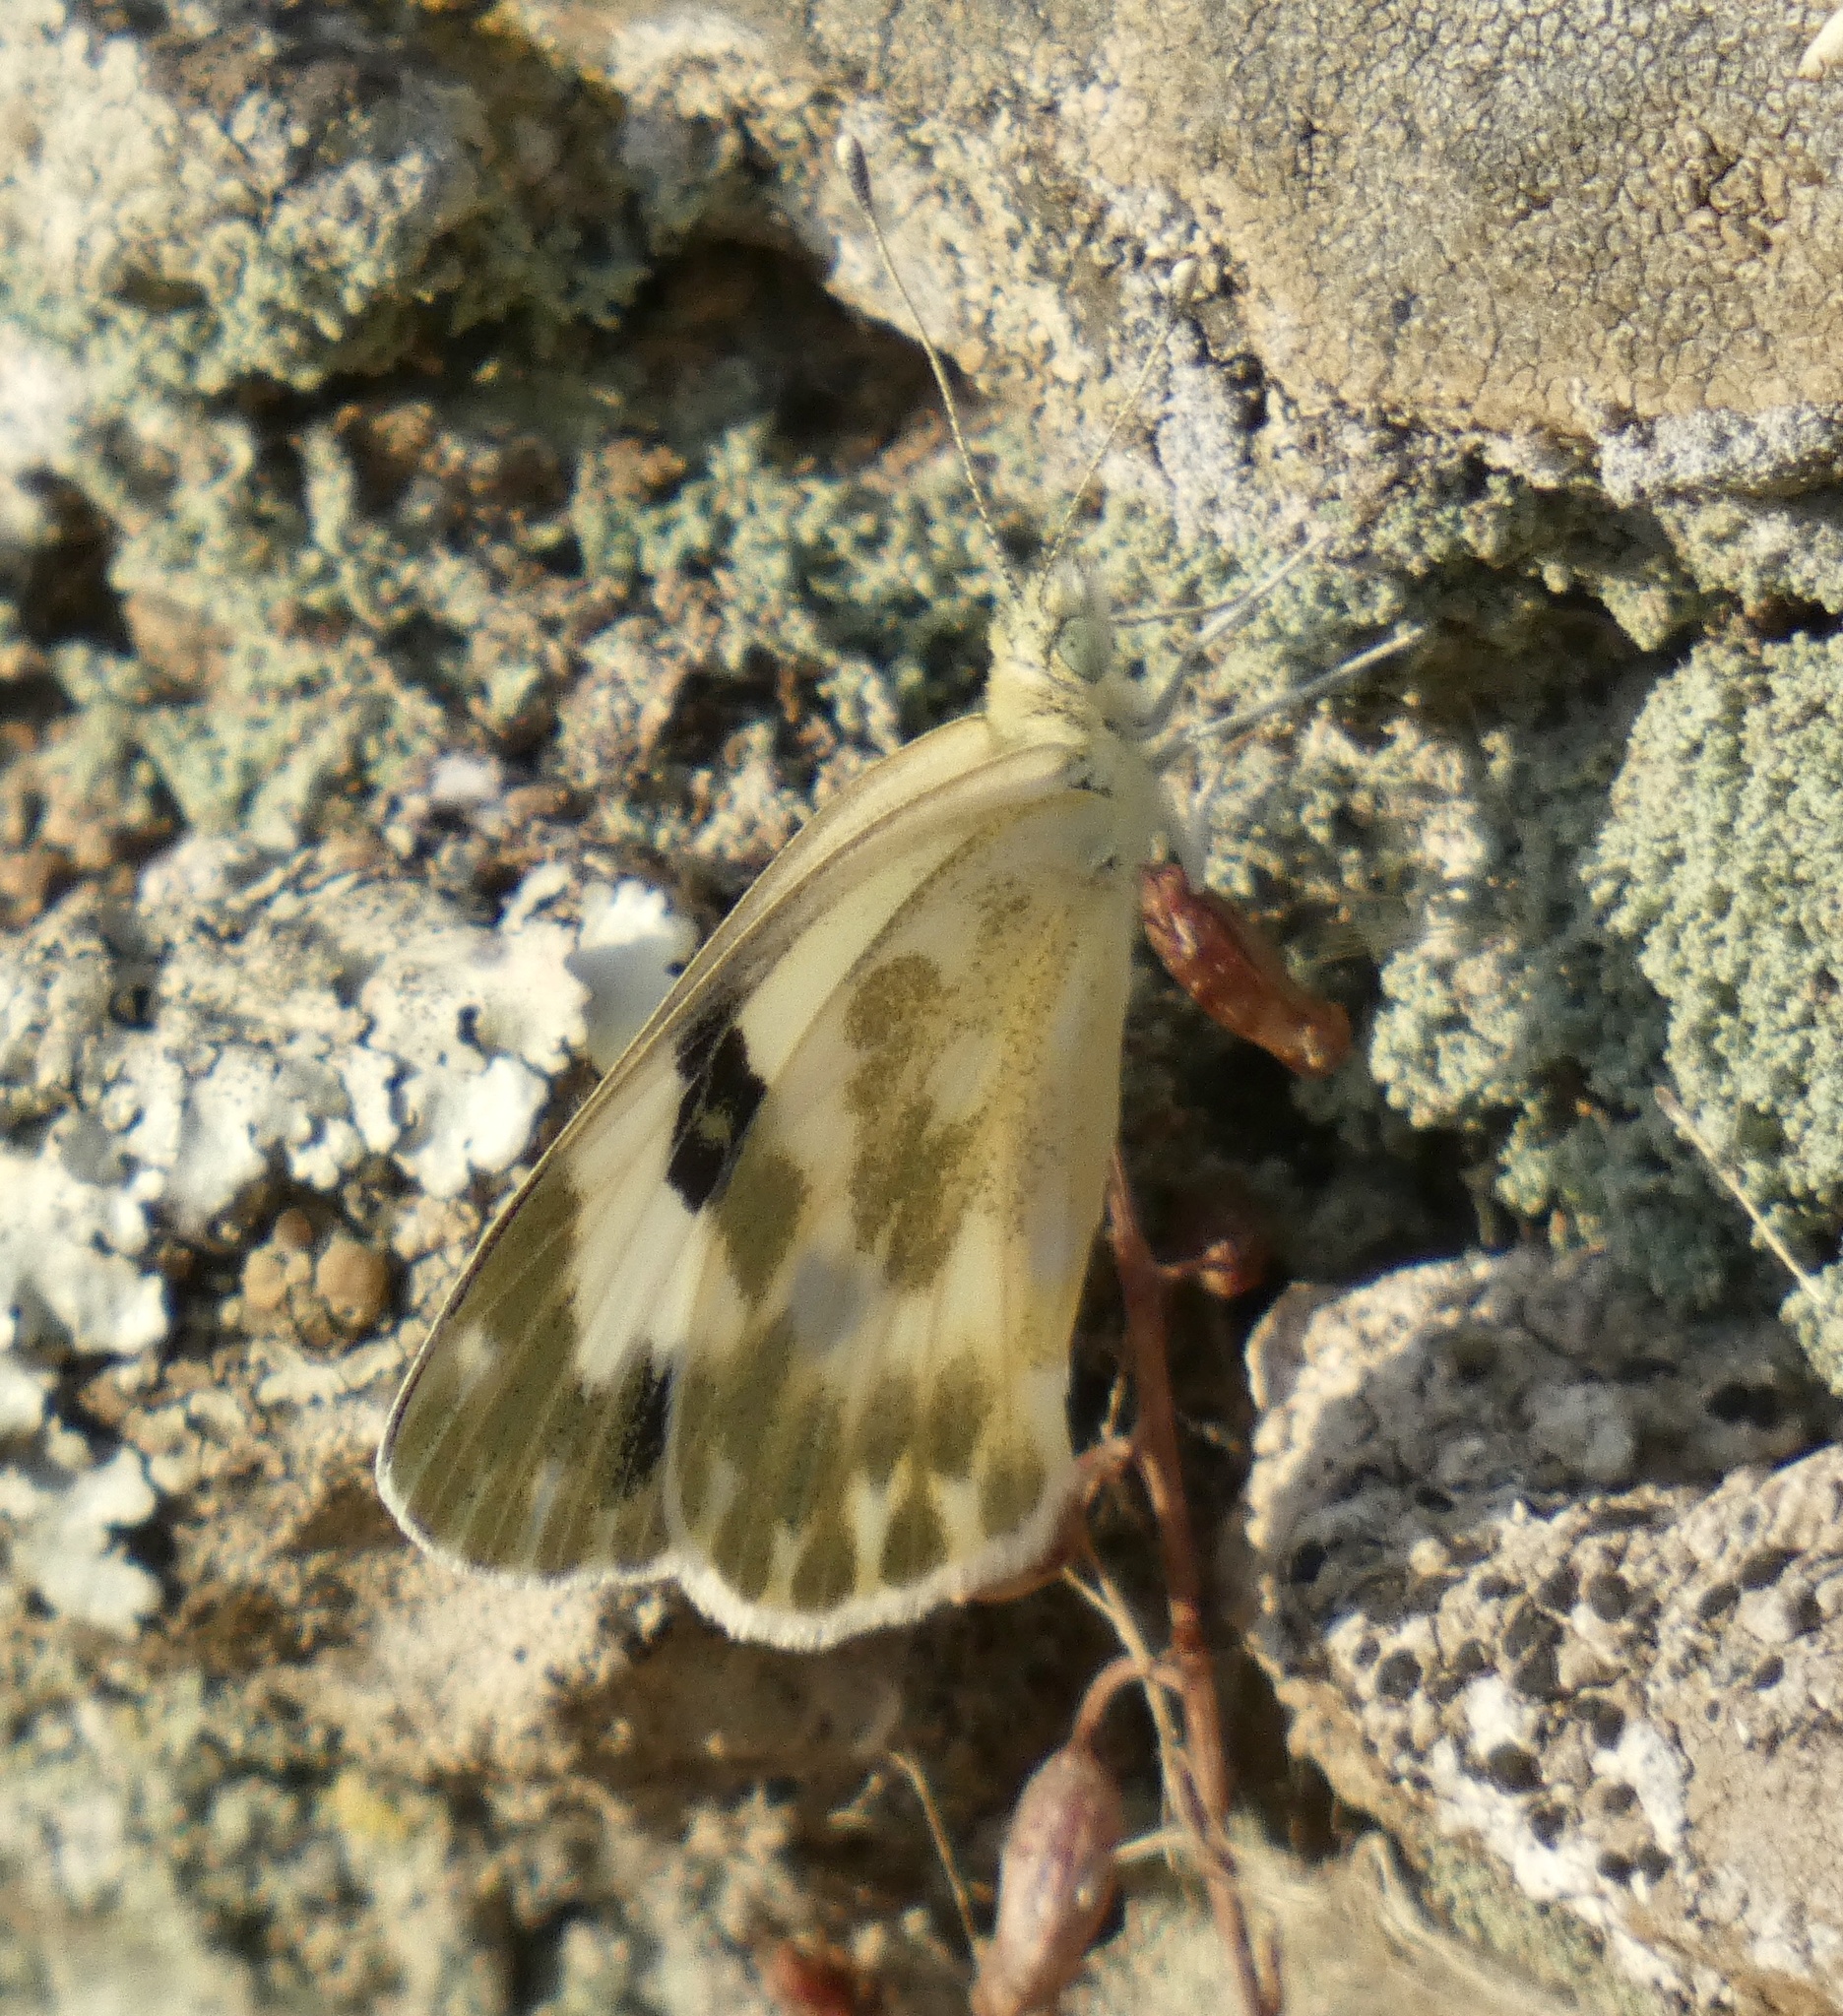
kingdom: Animalia
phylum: Arthropoda
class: Insecta
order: Lepidoptera
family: Pieridae
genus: Pontia
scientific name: Pontia daplidice
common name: Bath white
